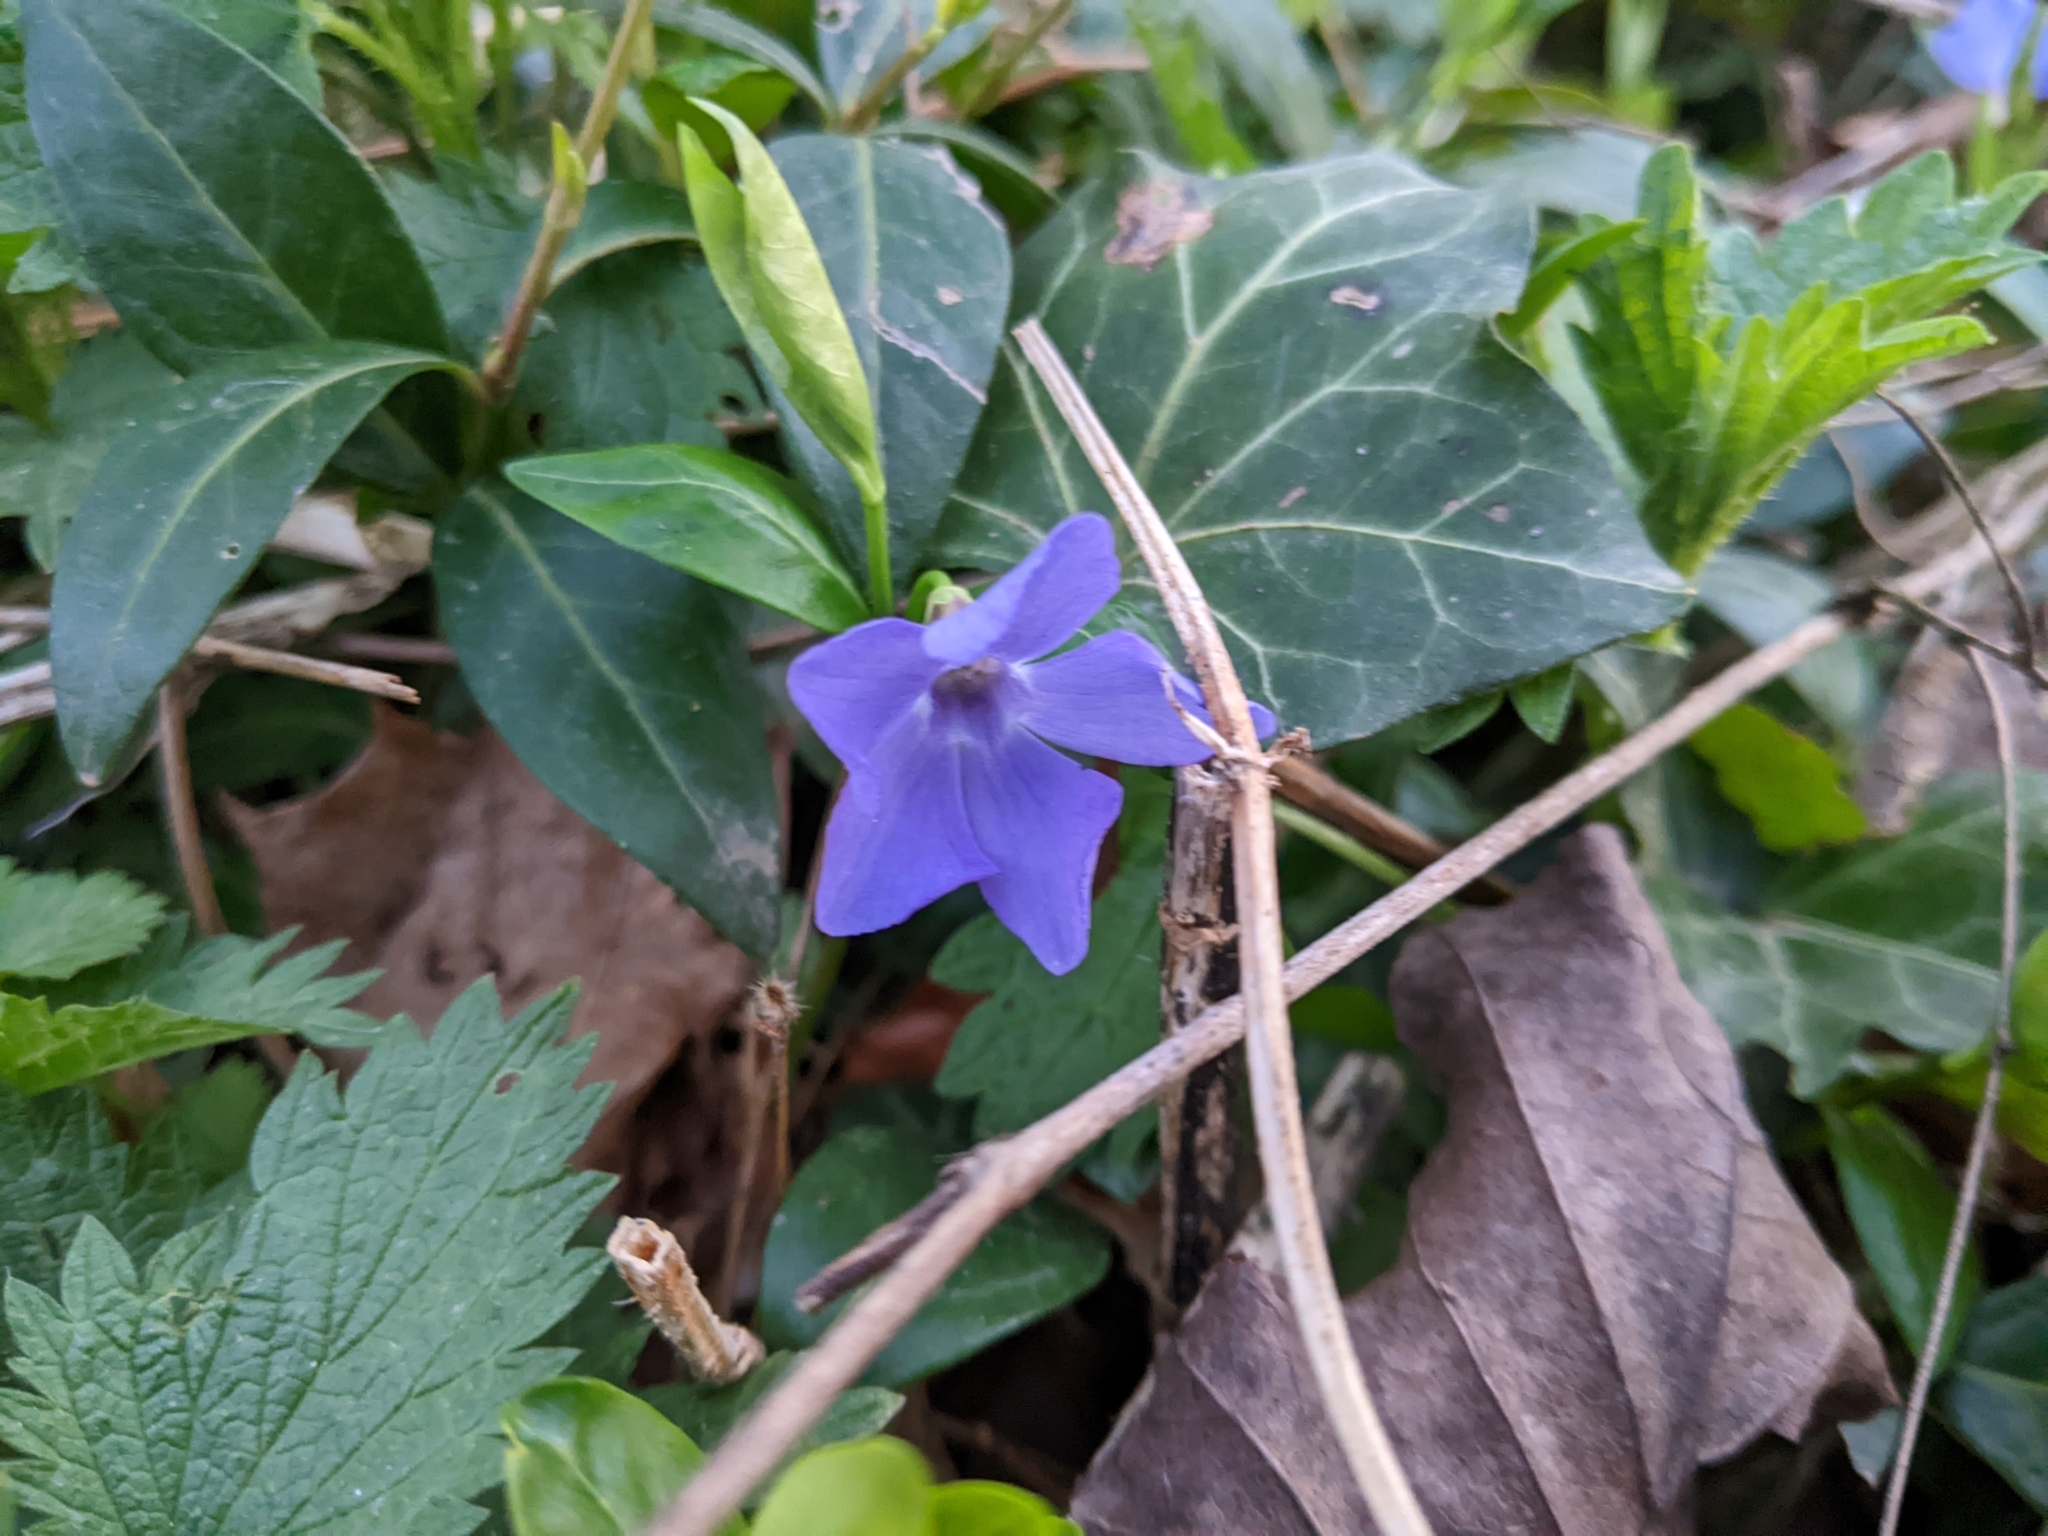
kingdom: Plantae
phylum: Tracheophyta
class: Magnoliopsida
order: Gentianales
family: Apocynaceae
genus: Vinca
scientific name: Vinca minor
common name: Lesser periwinkle
